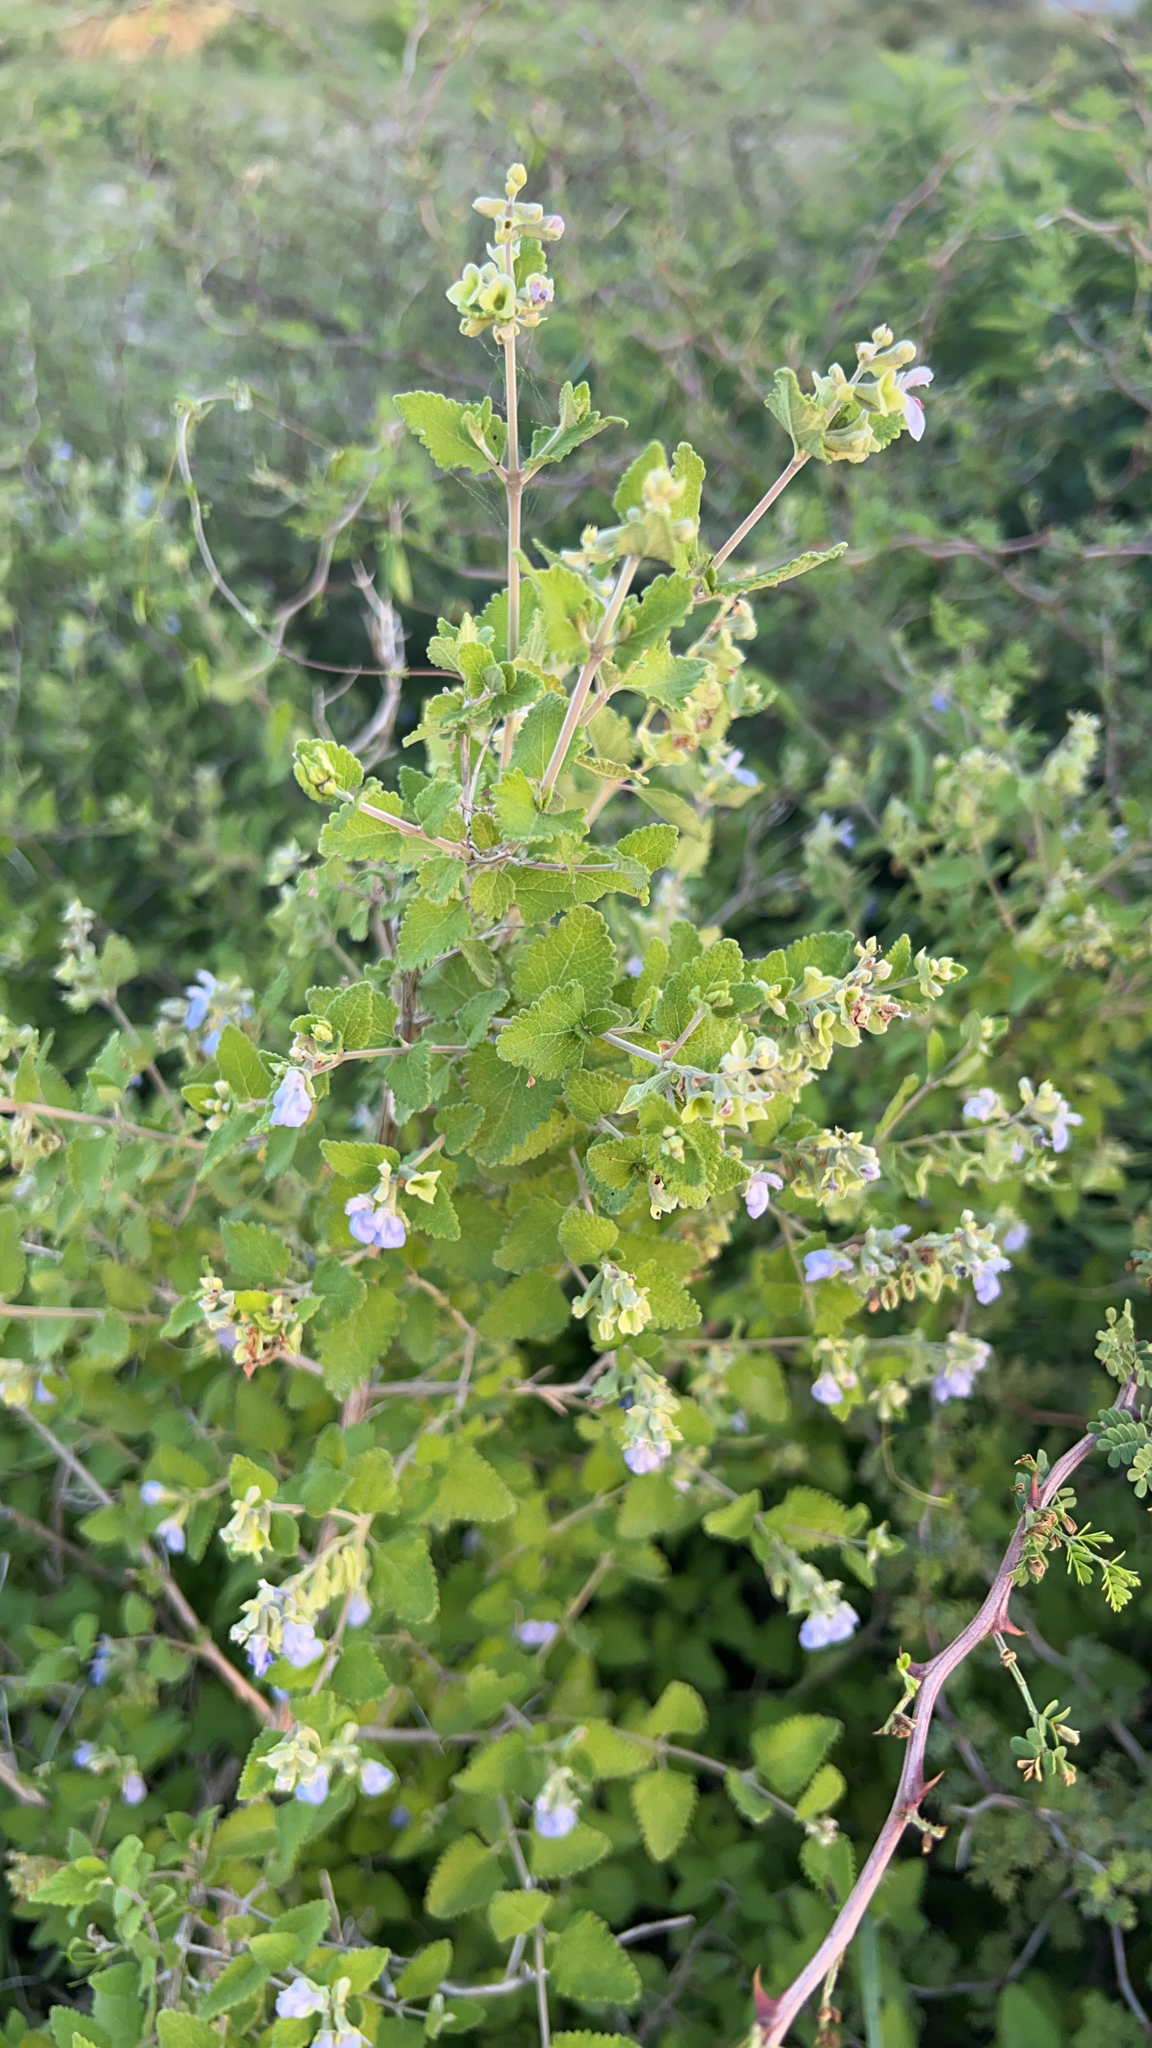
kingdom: Plantae
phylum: Tracheophyta
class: Magnoliopsida
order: Lamiales
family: Lamiaceae
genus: Salvia
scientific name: Salvia ballotiflora
